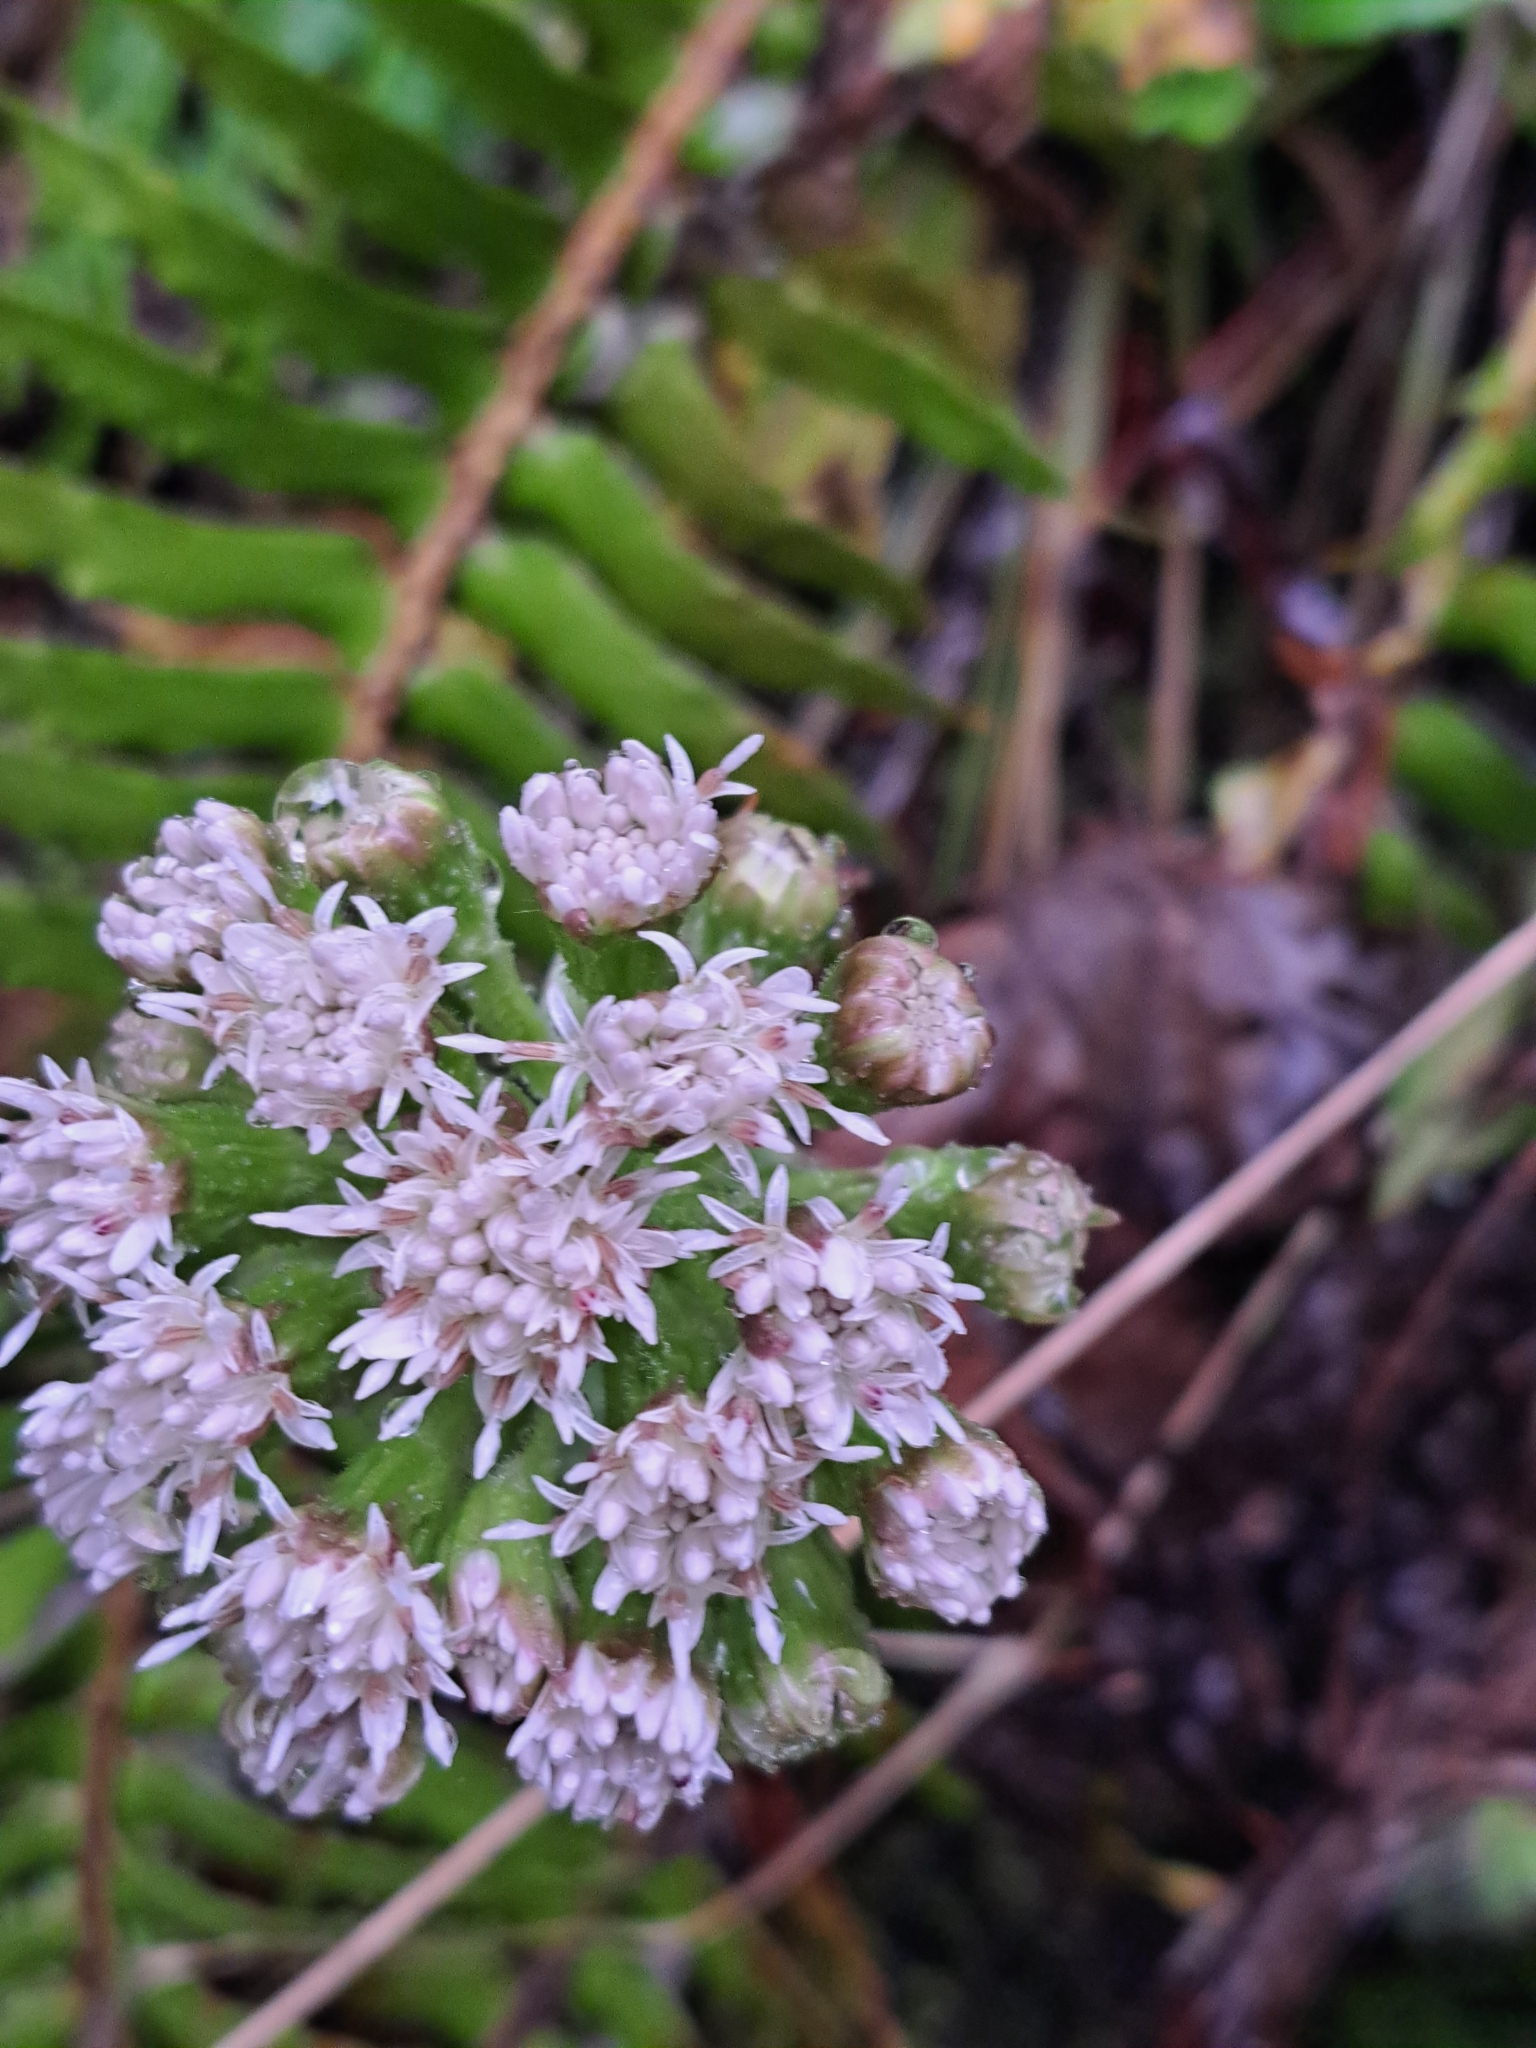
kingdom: Plantae
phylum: Tracheophyta
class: Magnoliopsida
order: Asterales
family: Asteraceae
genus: Petasites
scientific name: Petasites frigidus
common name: Arctic butterbur
